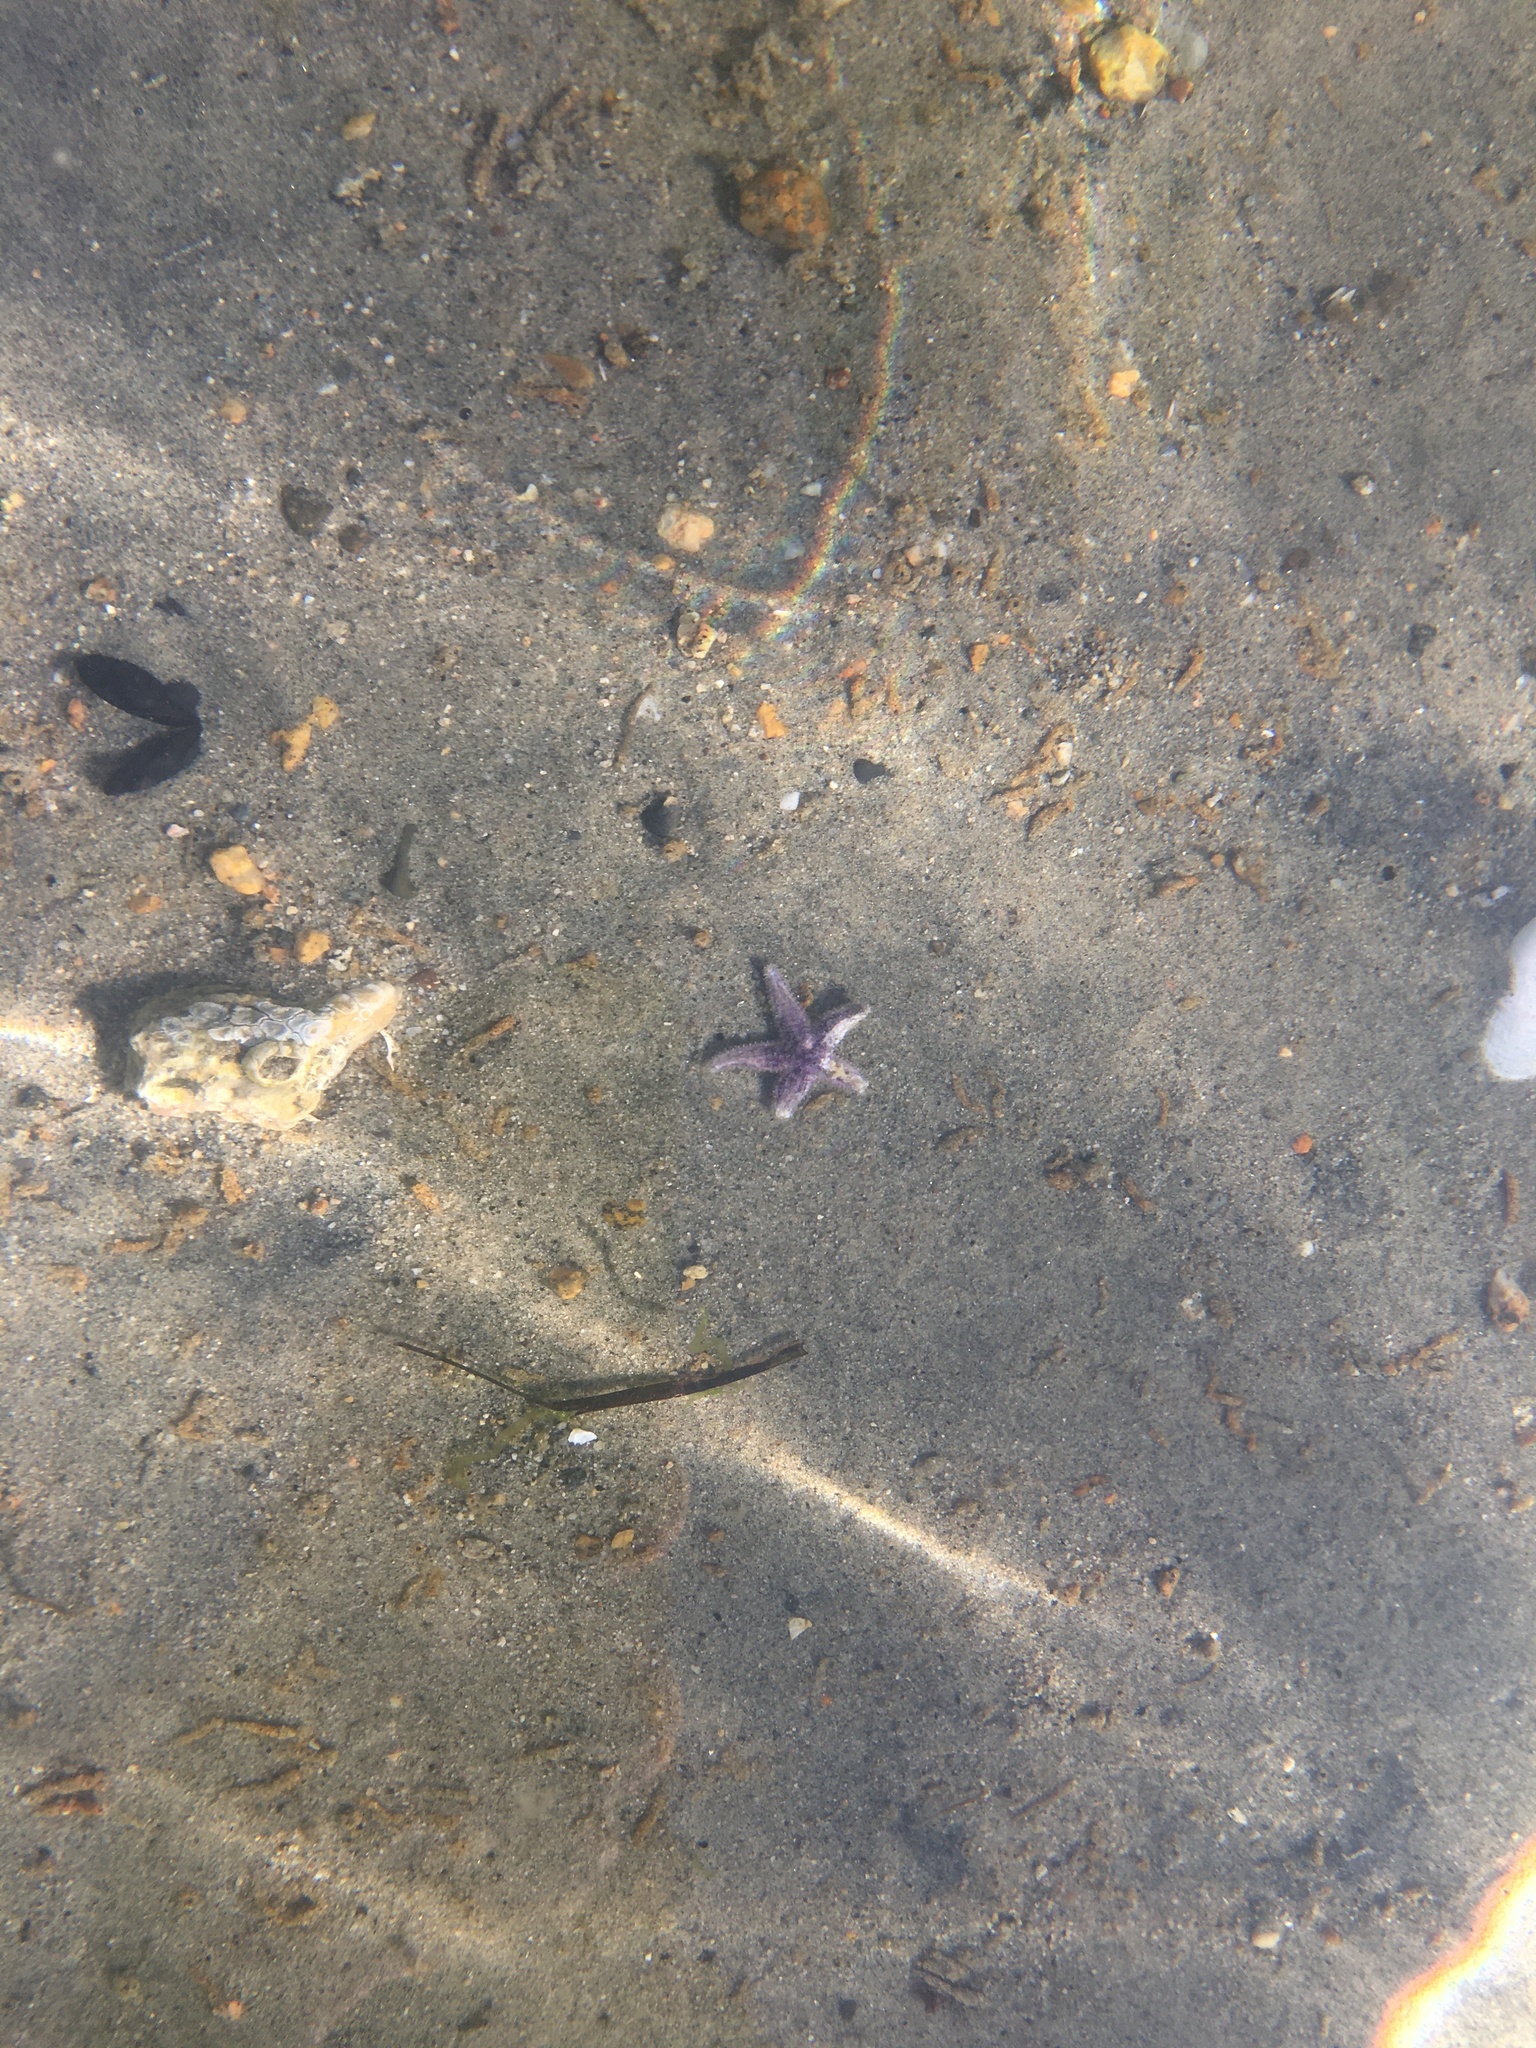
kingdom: Animalia
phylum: Echinodermata
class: Asteroidea
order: Forcipulatida
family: Asteriidae
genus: Pisaster
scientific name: Pisaster ochraceus
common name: Ochre stars
